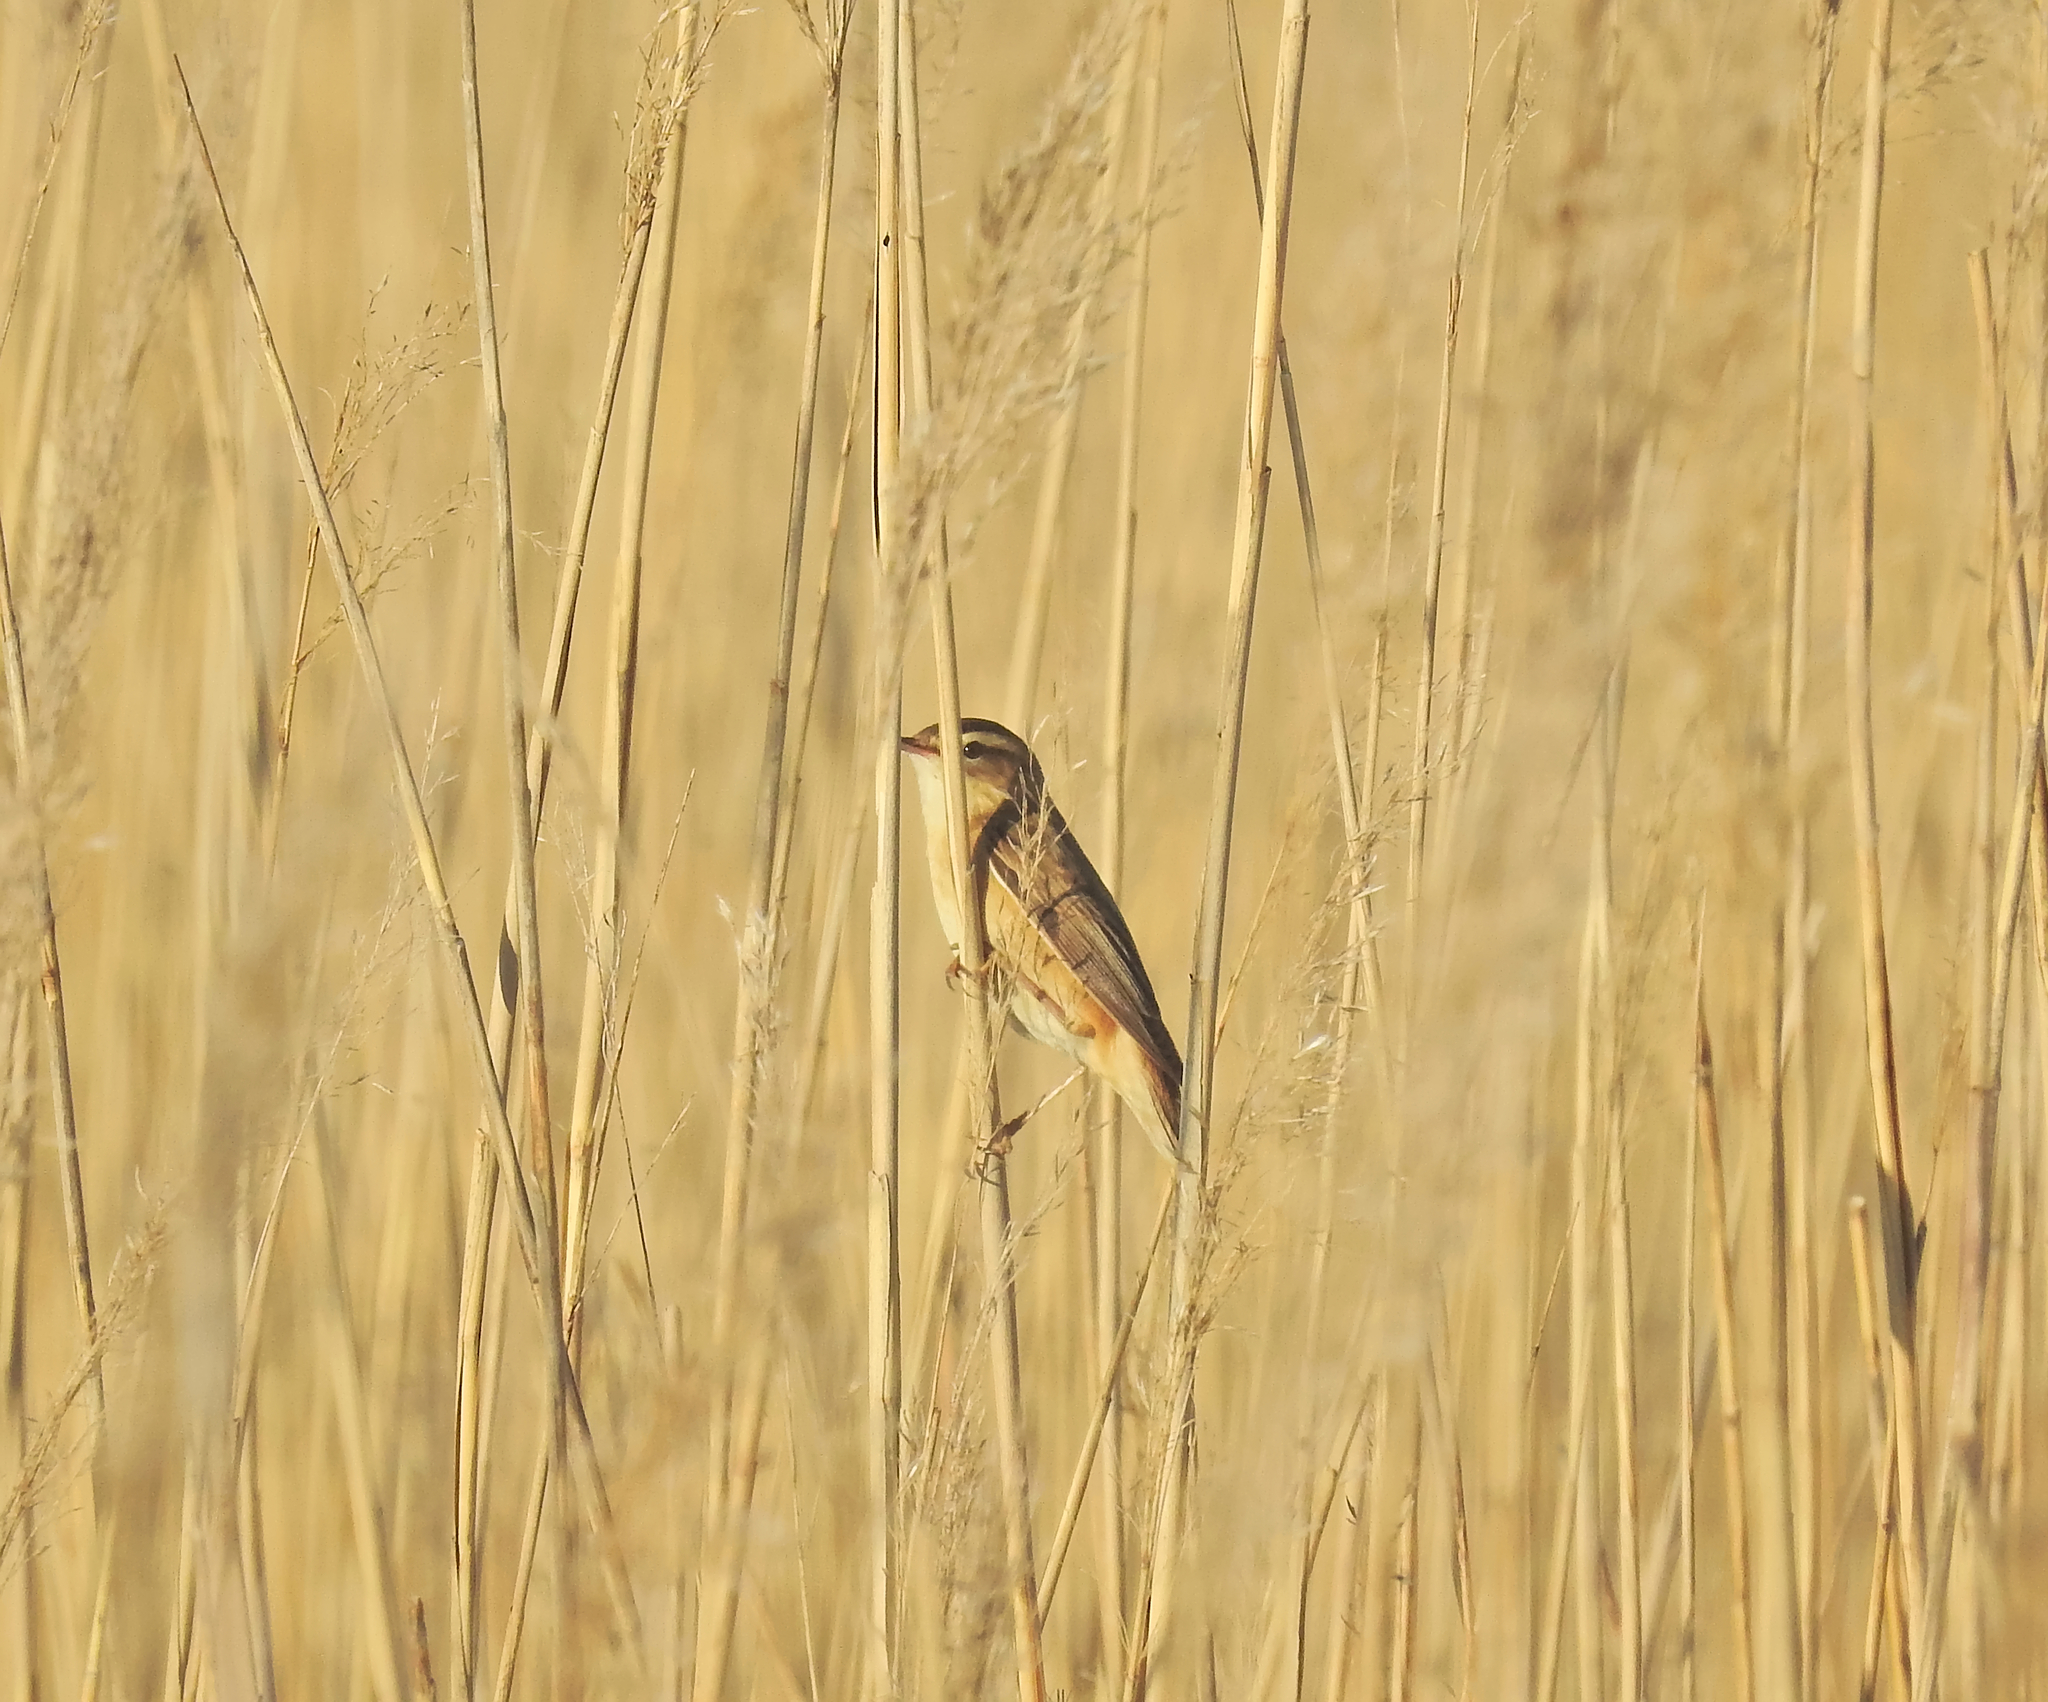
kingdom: Animalia
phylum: Chordata
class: Aves
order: Passeriformes
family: Acrocephalidae
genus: Acrocephalus
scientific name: Acrocephalus schoenobaenus
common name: Sedge warbler
